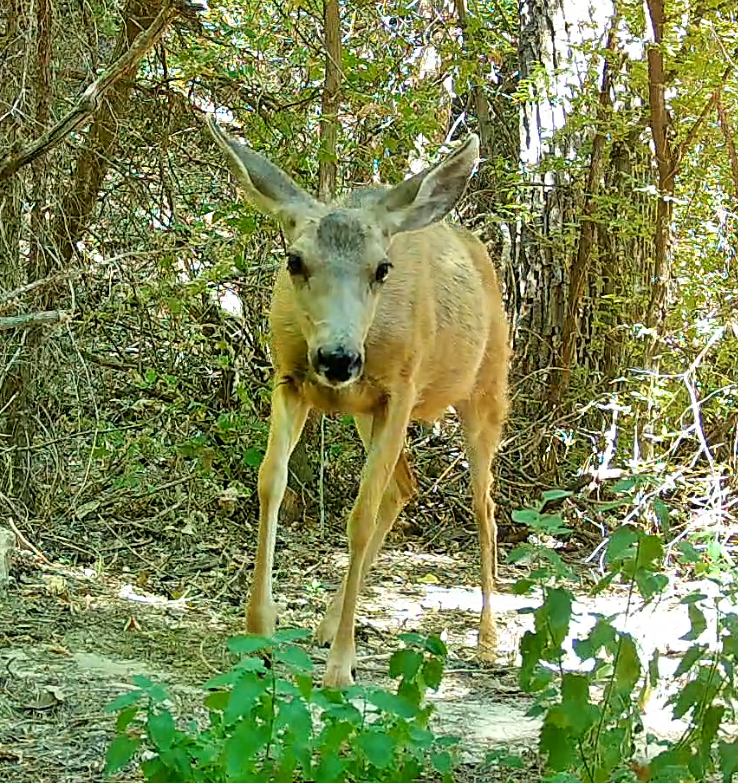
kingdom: Animalia
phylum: Chordata
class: Mammalia
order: Artiodactyla
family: Cervidae
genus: Odocoileus
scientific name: Odocoileus hemionus
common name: Mule deer
